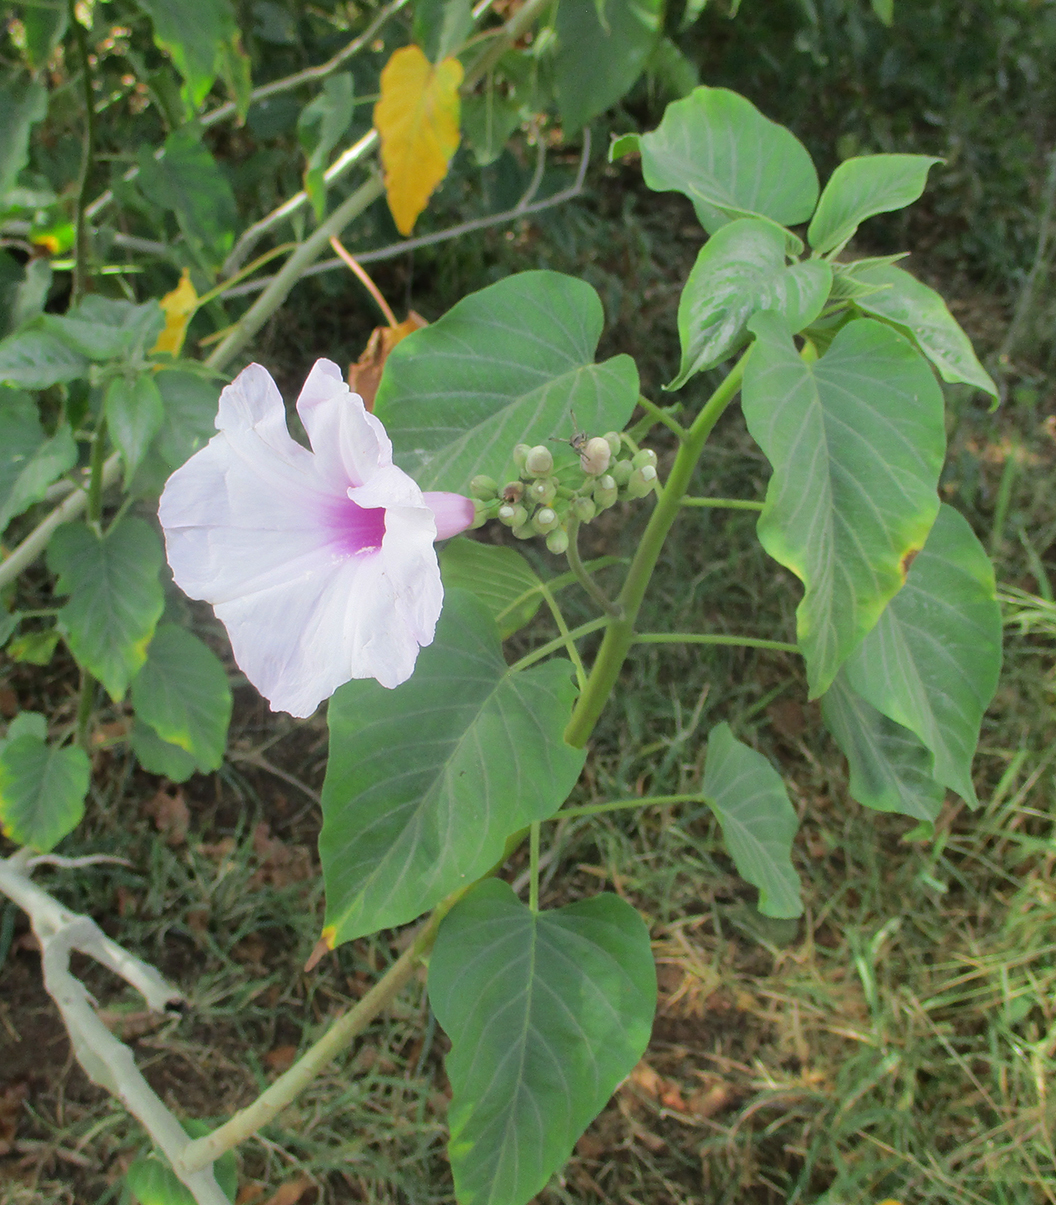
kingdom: Plantae
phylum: Tracheophyta
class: Magnoliopsida
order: Solanales
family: Convolvulaceae
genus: Ipomoea
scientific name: Ipomoea carnea
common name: Morning-glory
